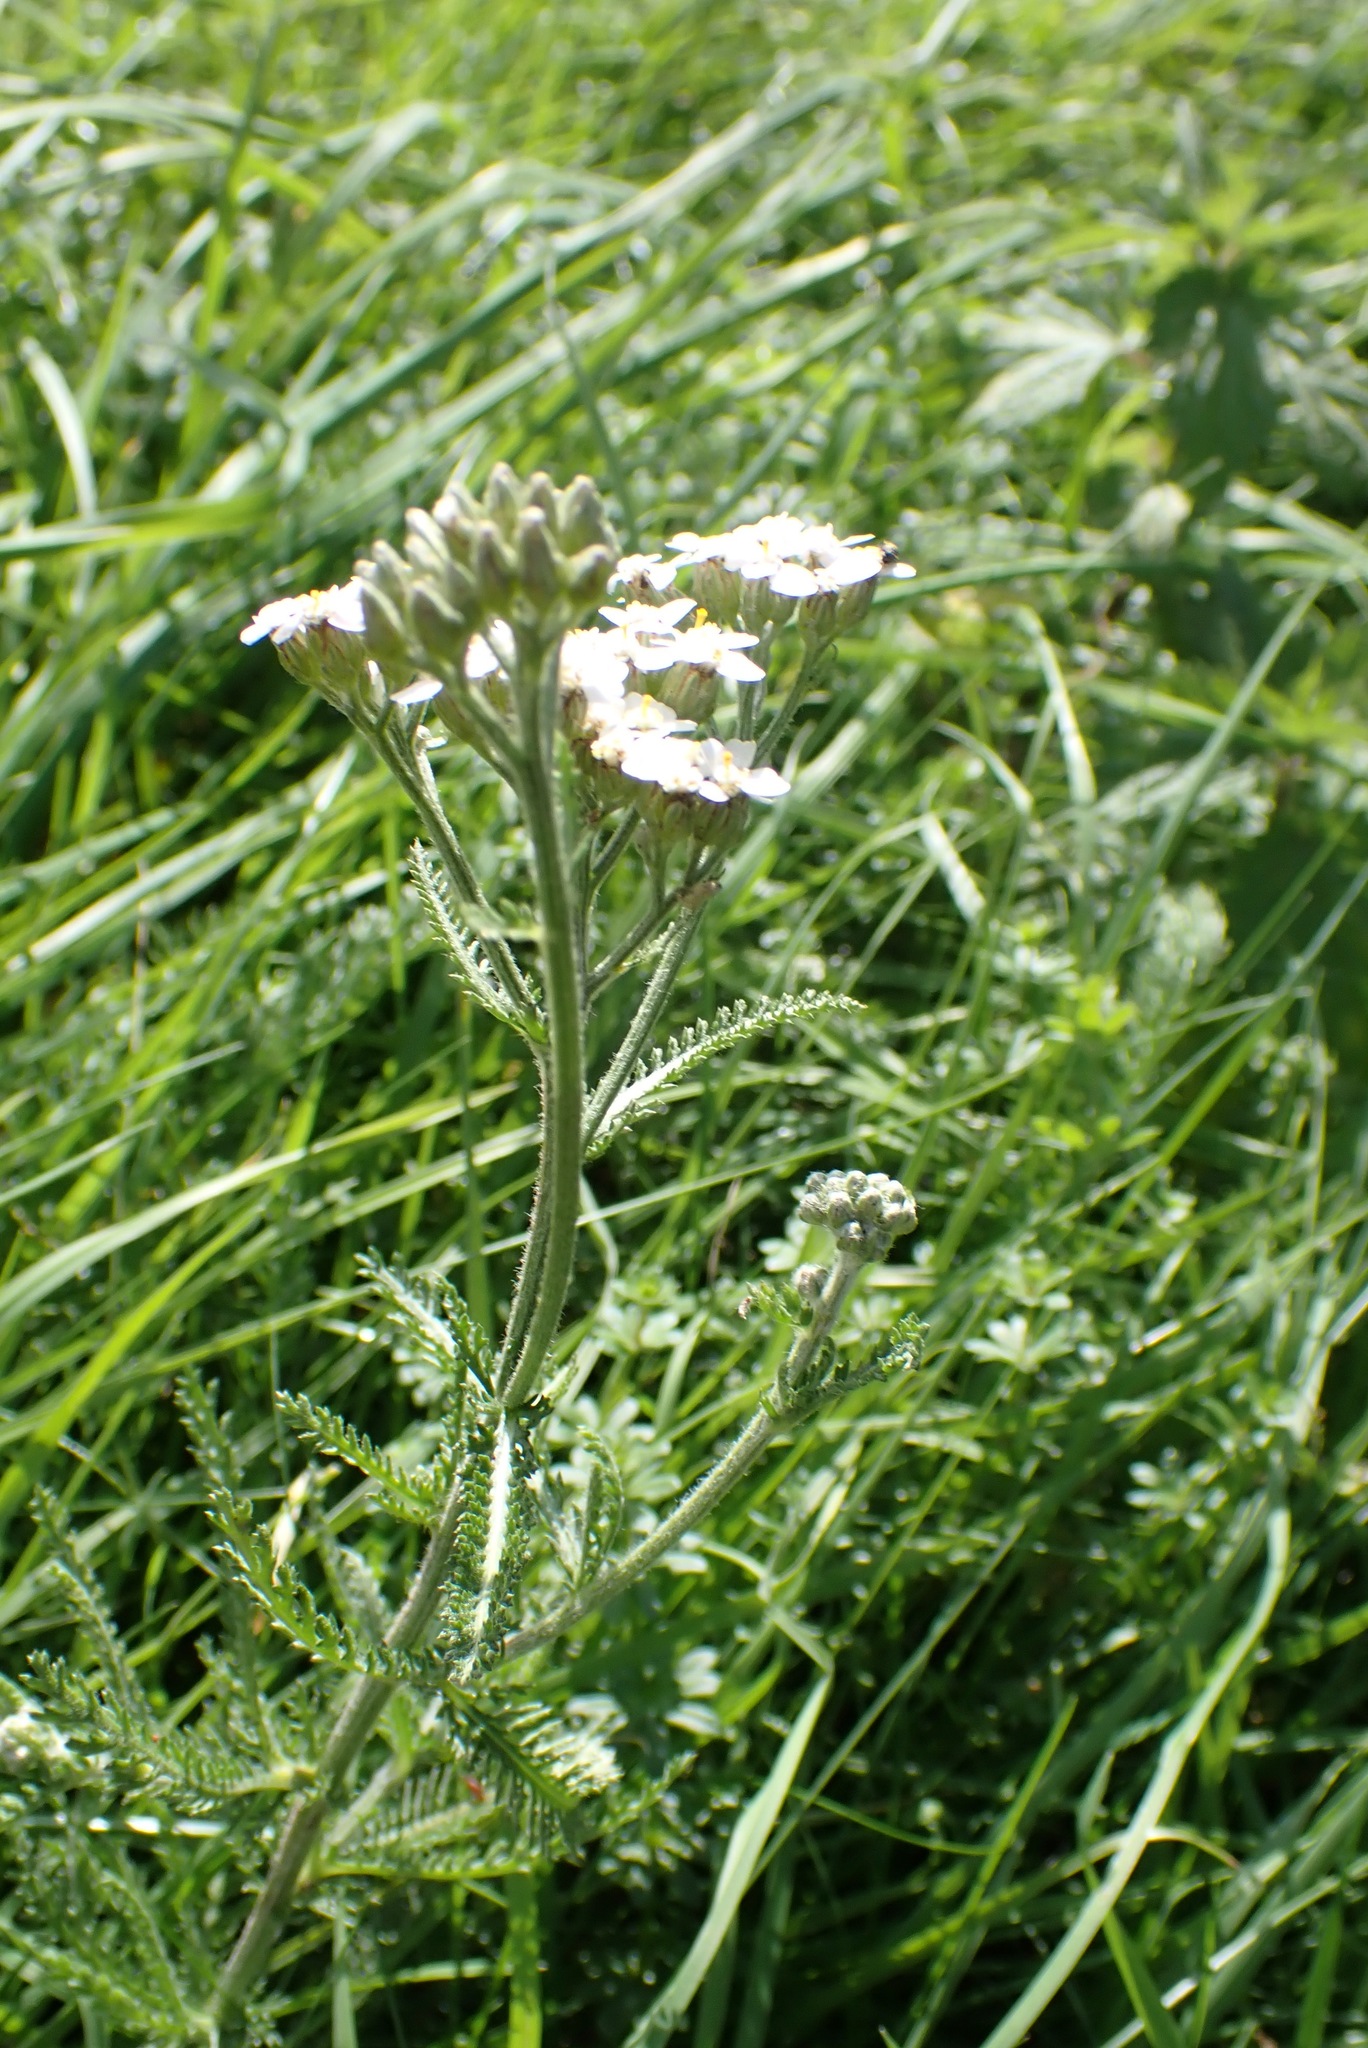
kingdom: Plantae
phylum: Tracheophyta
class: Magnoliopsida
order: Asterales
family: Asteraceae
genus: Achillea
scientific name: Achillea millefolium
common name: Yarrow
